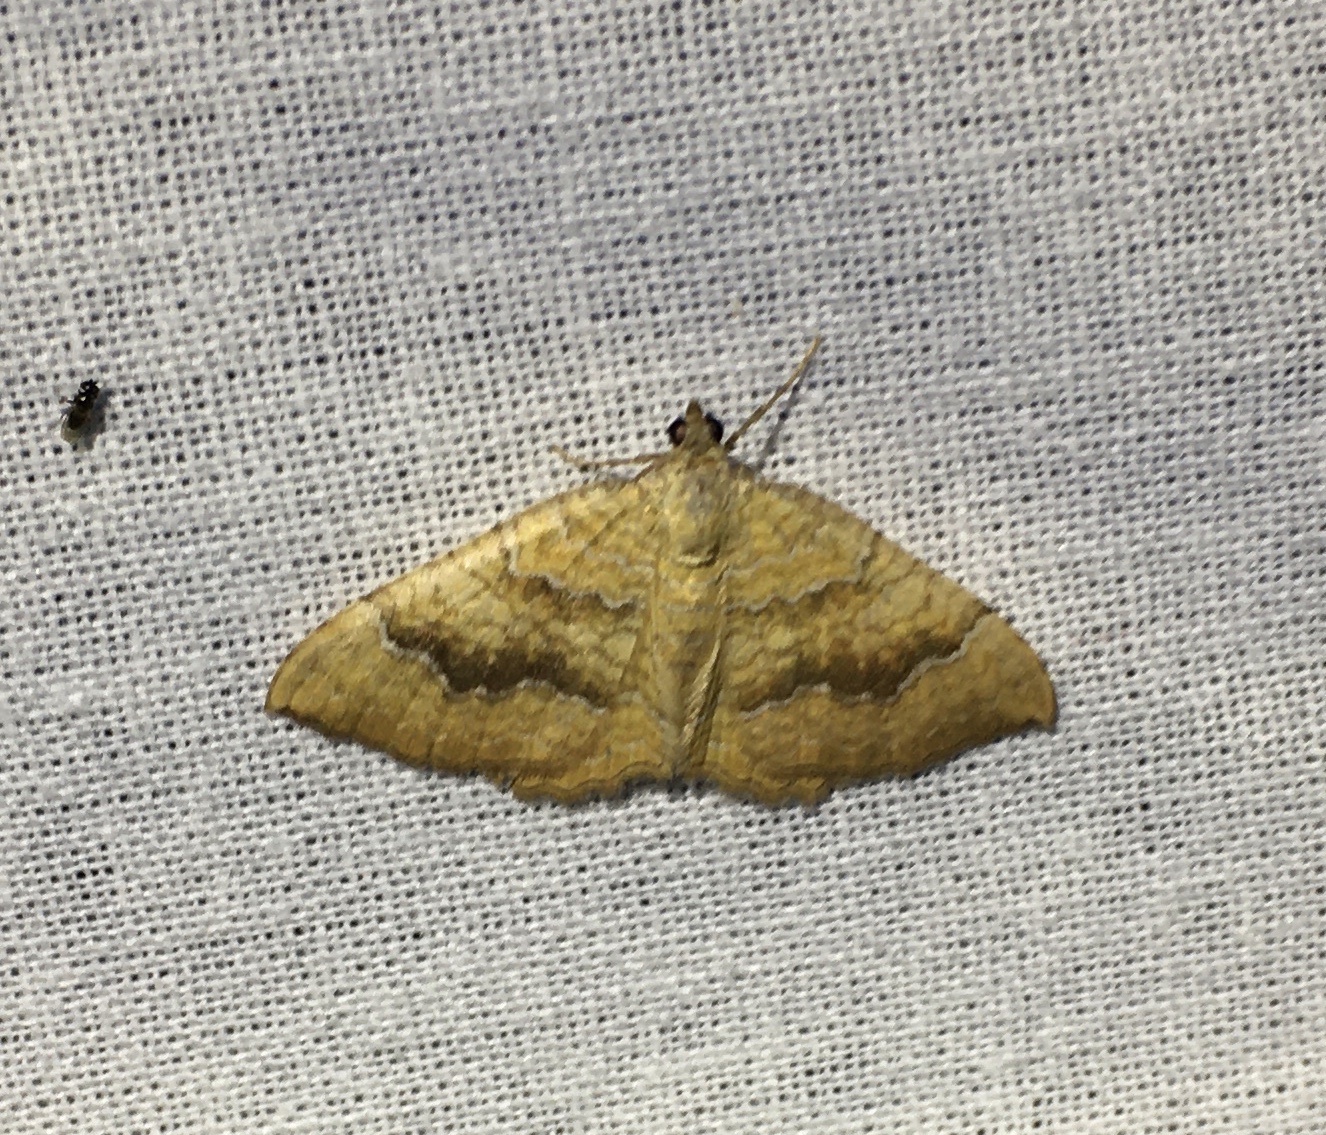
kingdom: Animalia
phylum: Arthropoda
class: Insecta
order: Lepidoptera
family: Geometridae
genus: Camptogramma
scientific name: Camptogramma bilineata
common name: Yellow shell
